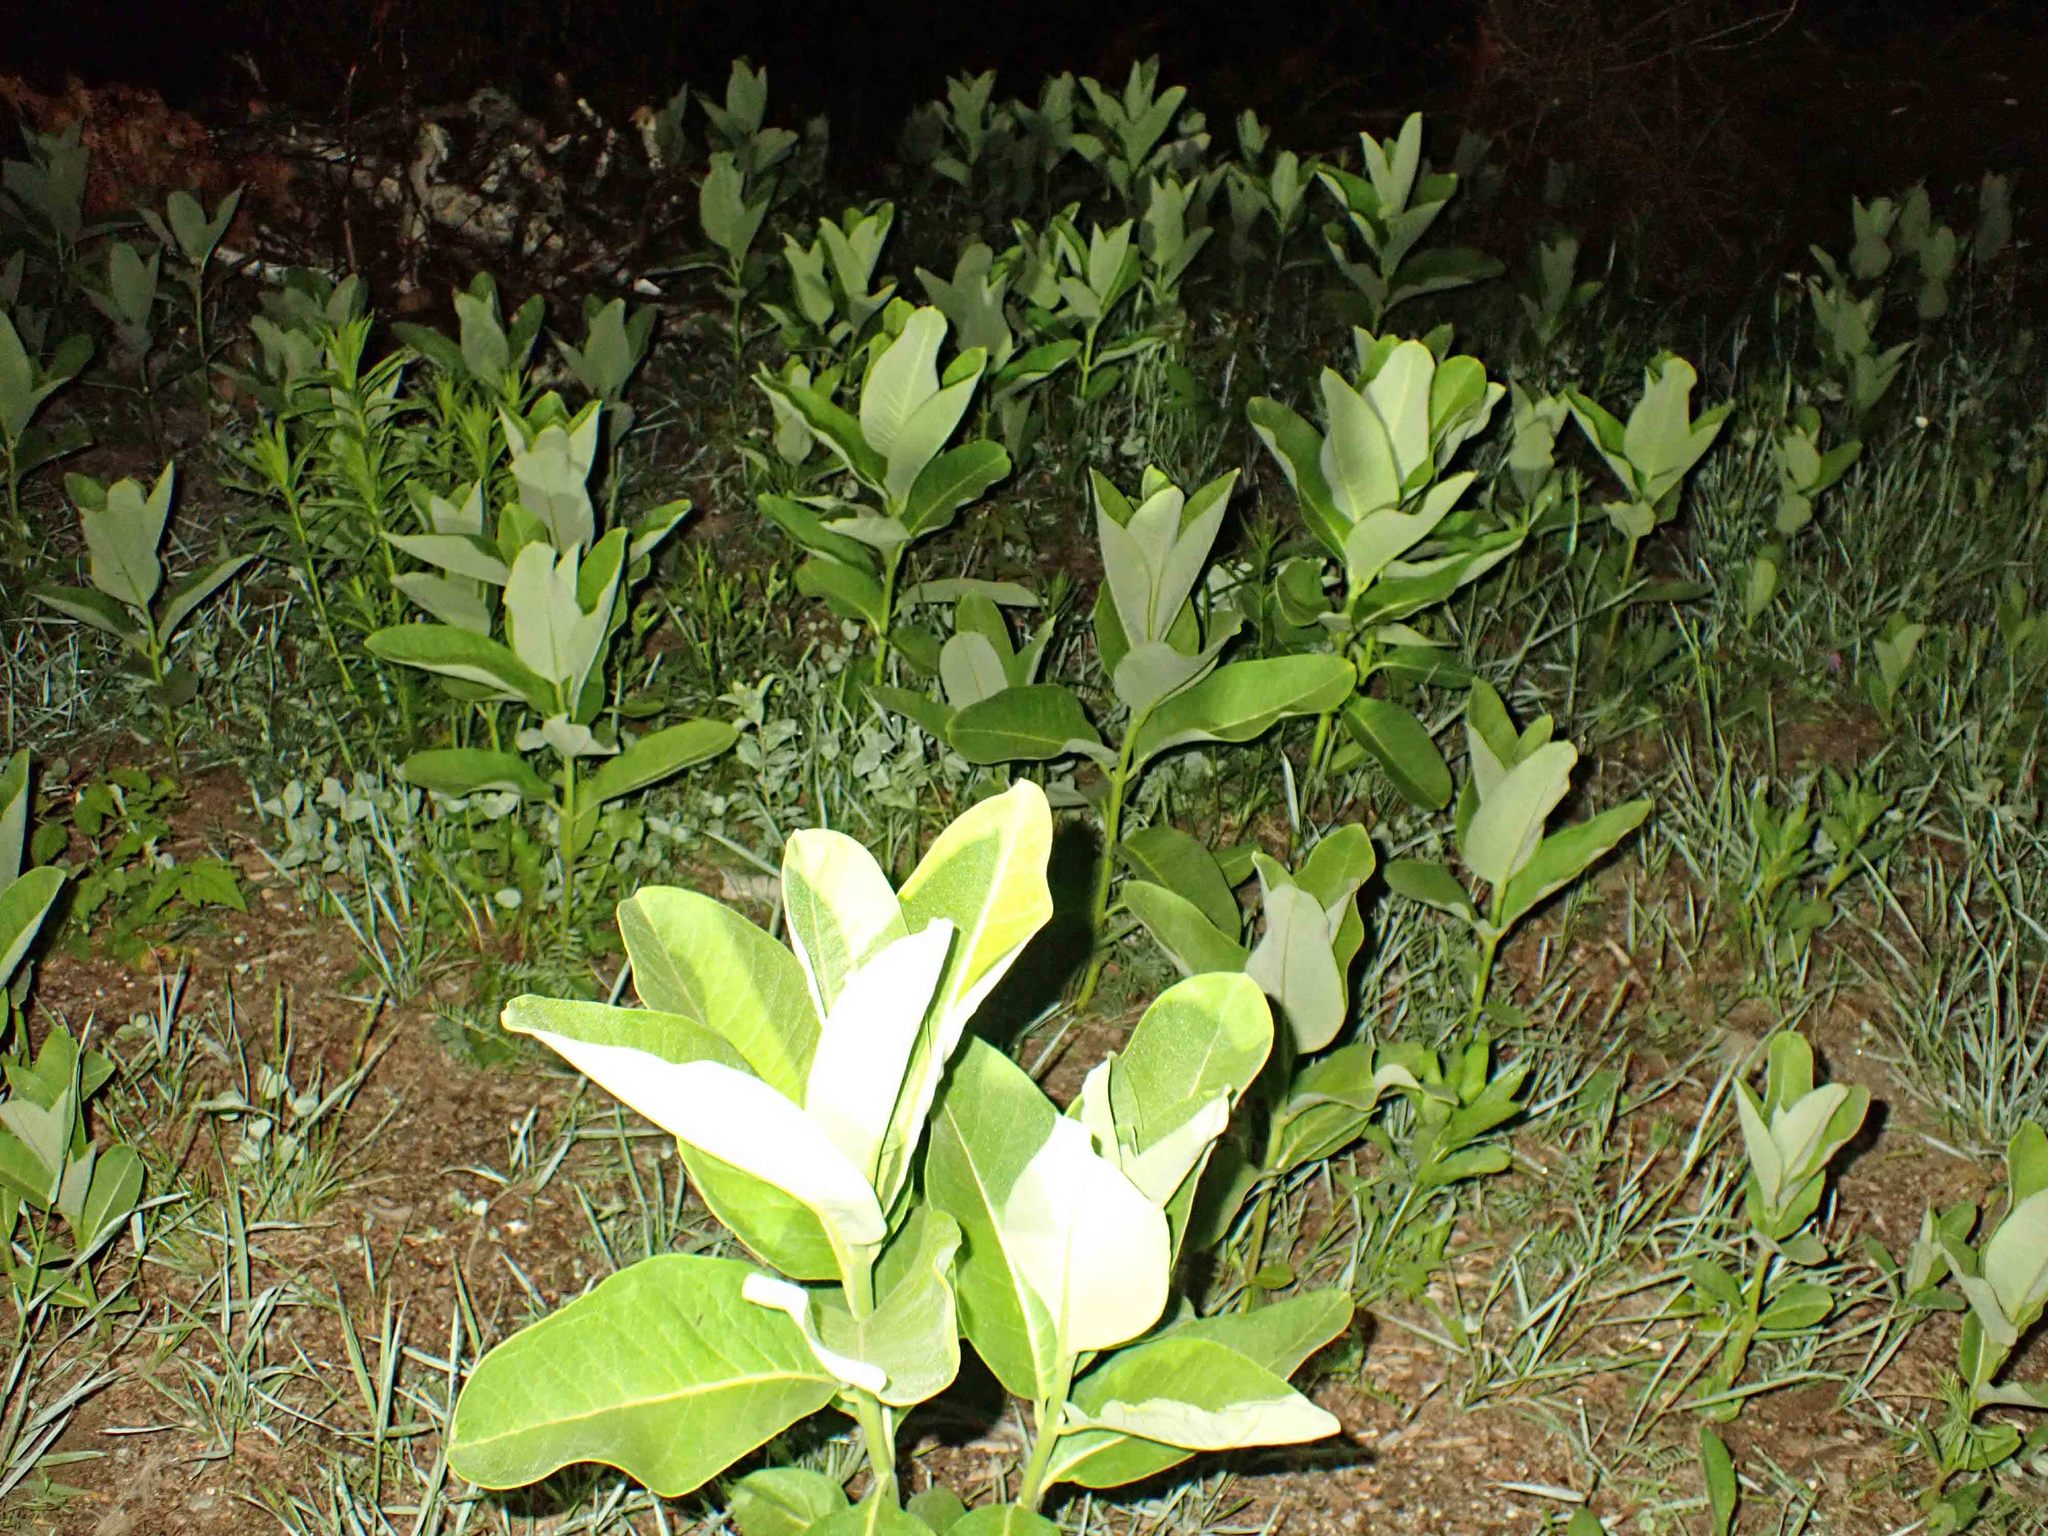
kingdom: Plantae
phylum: Tracheophyta
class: Magnoliopsida
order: Gentianales
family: Apocynaceae
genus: Asclepias
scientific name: Asclepias syriaca
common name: Common milkweed
